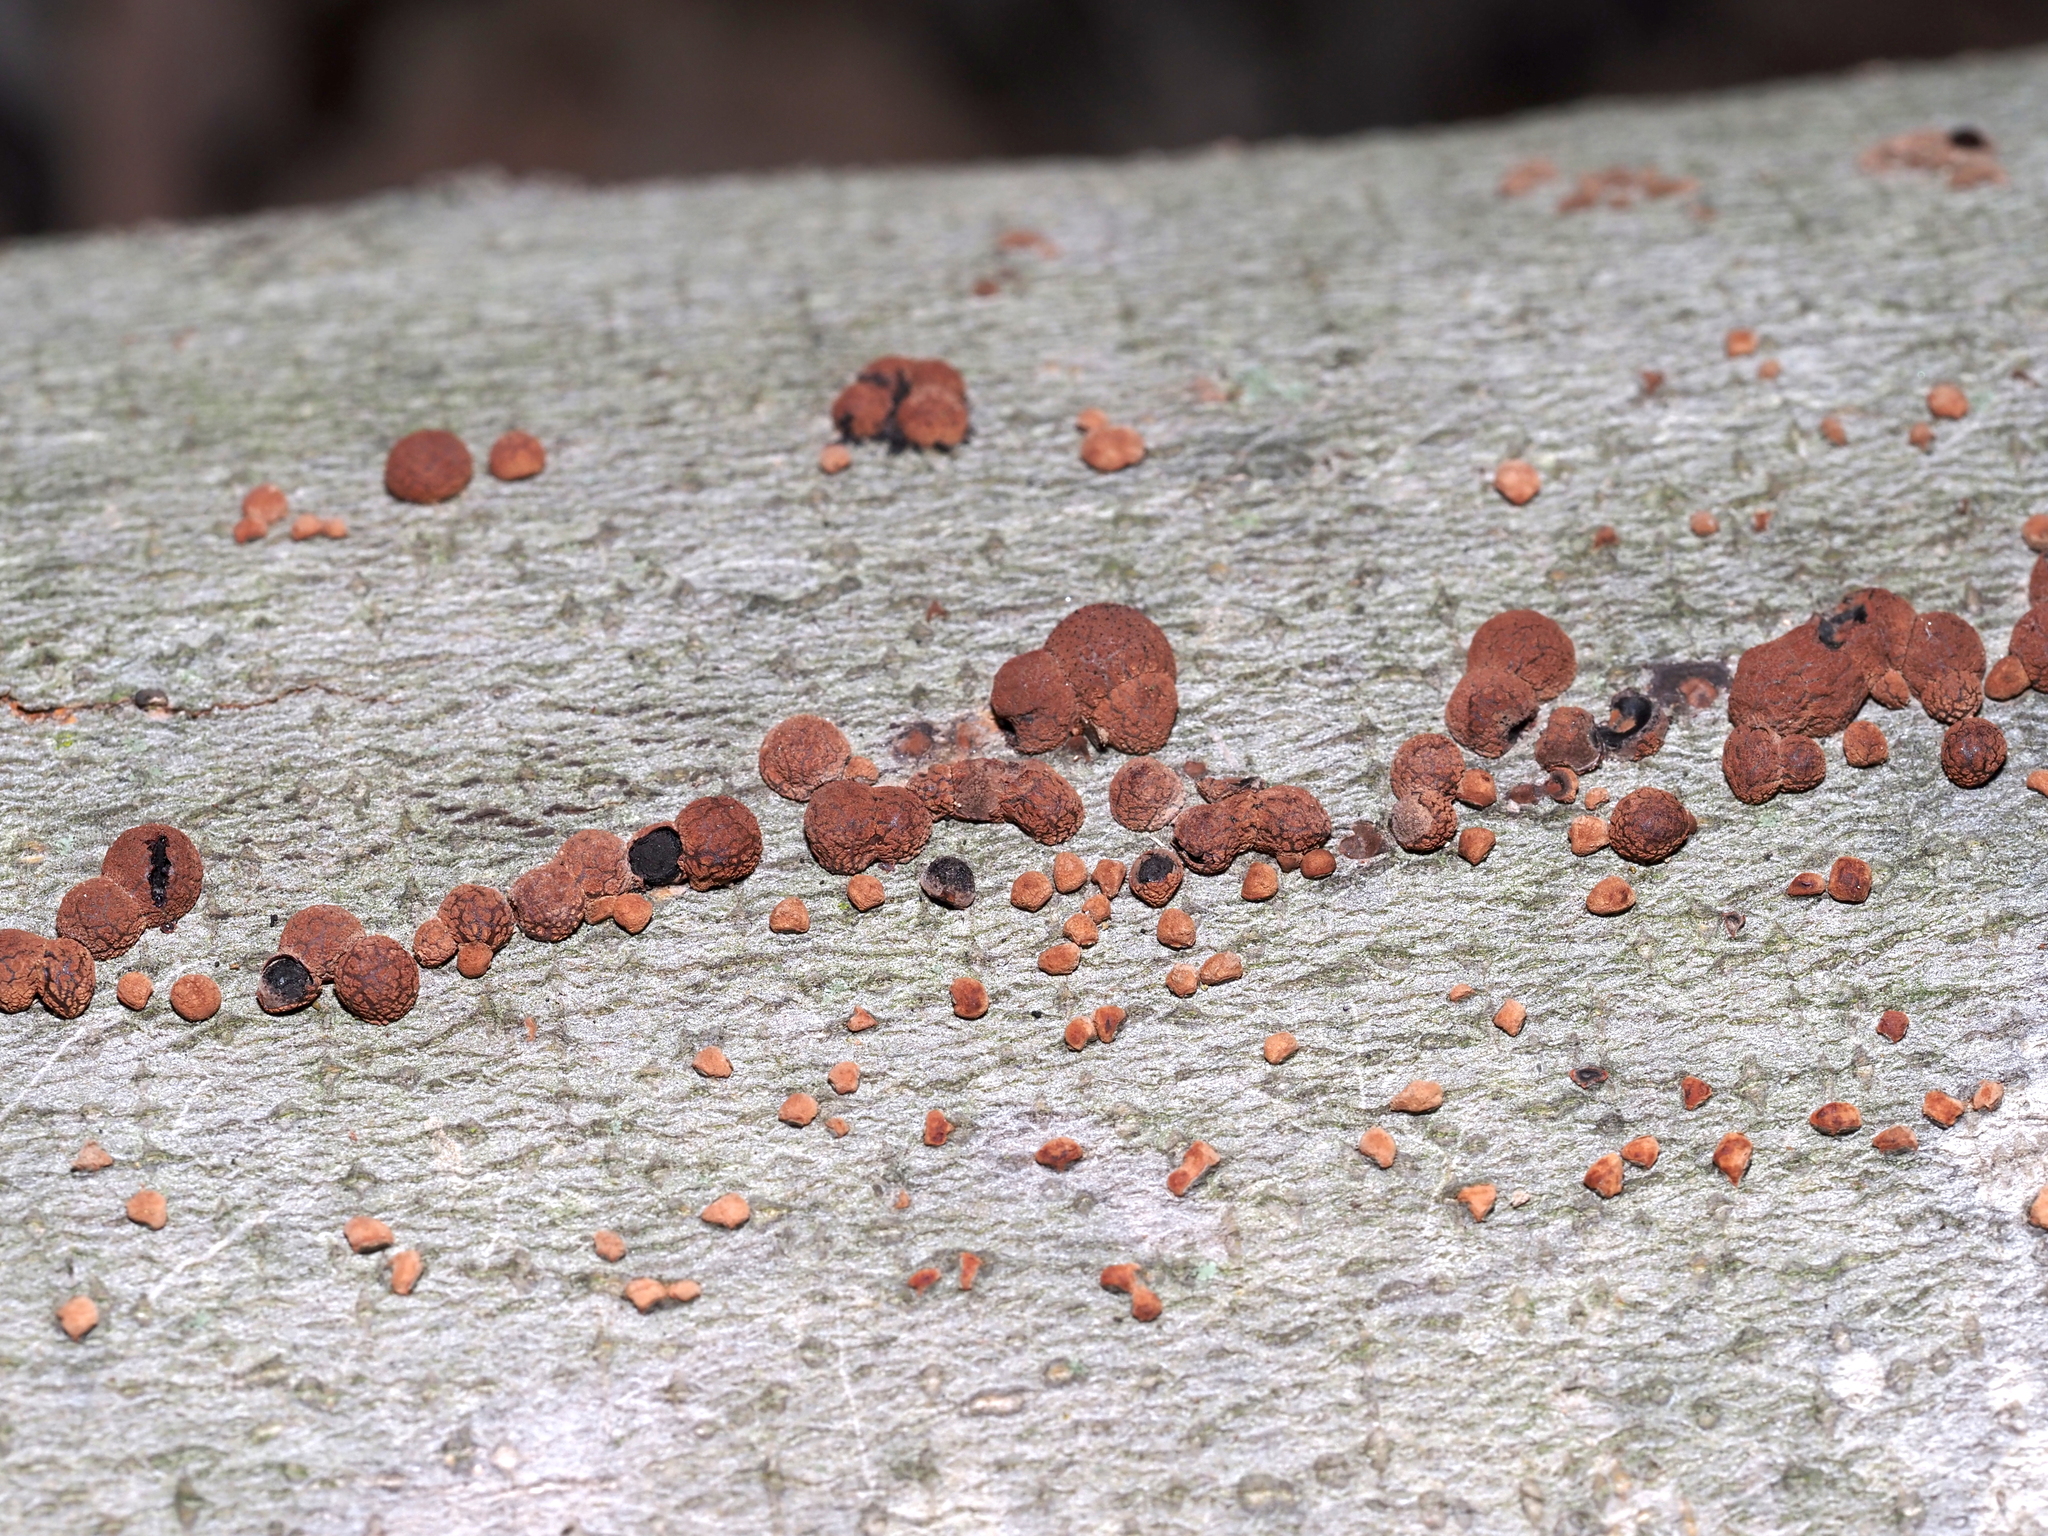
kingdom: Fungi
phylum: Ascomycota
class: Sordariomycetes
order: Xylariales
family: Hypoxylaceae
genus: Hypoxylon
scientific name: Hypoxylon fragiforme
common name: Beech woodwart
